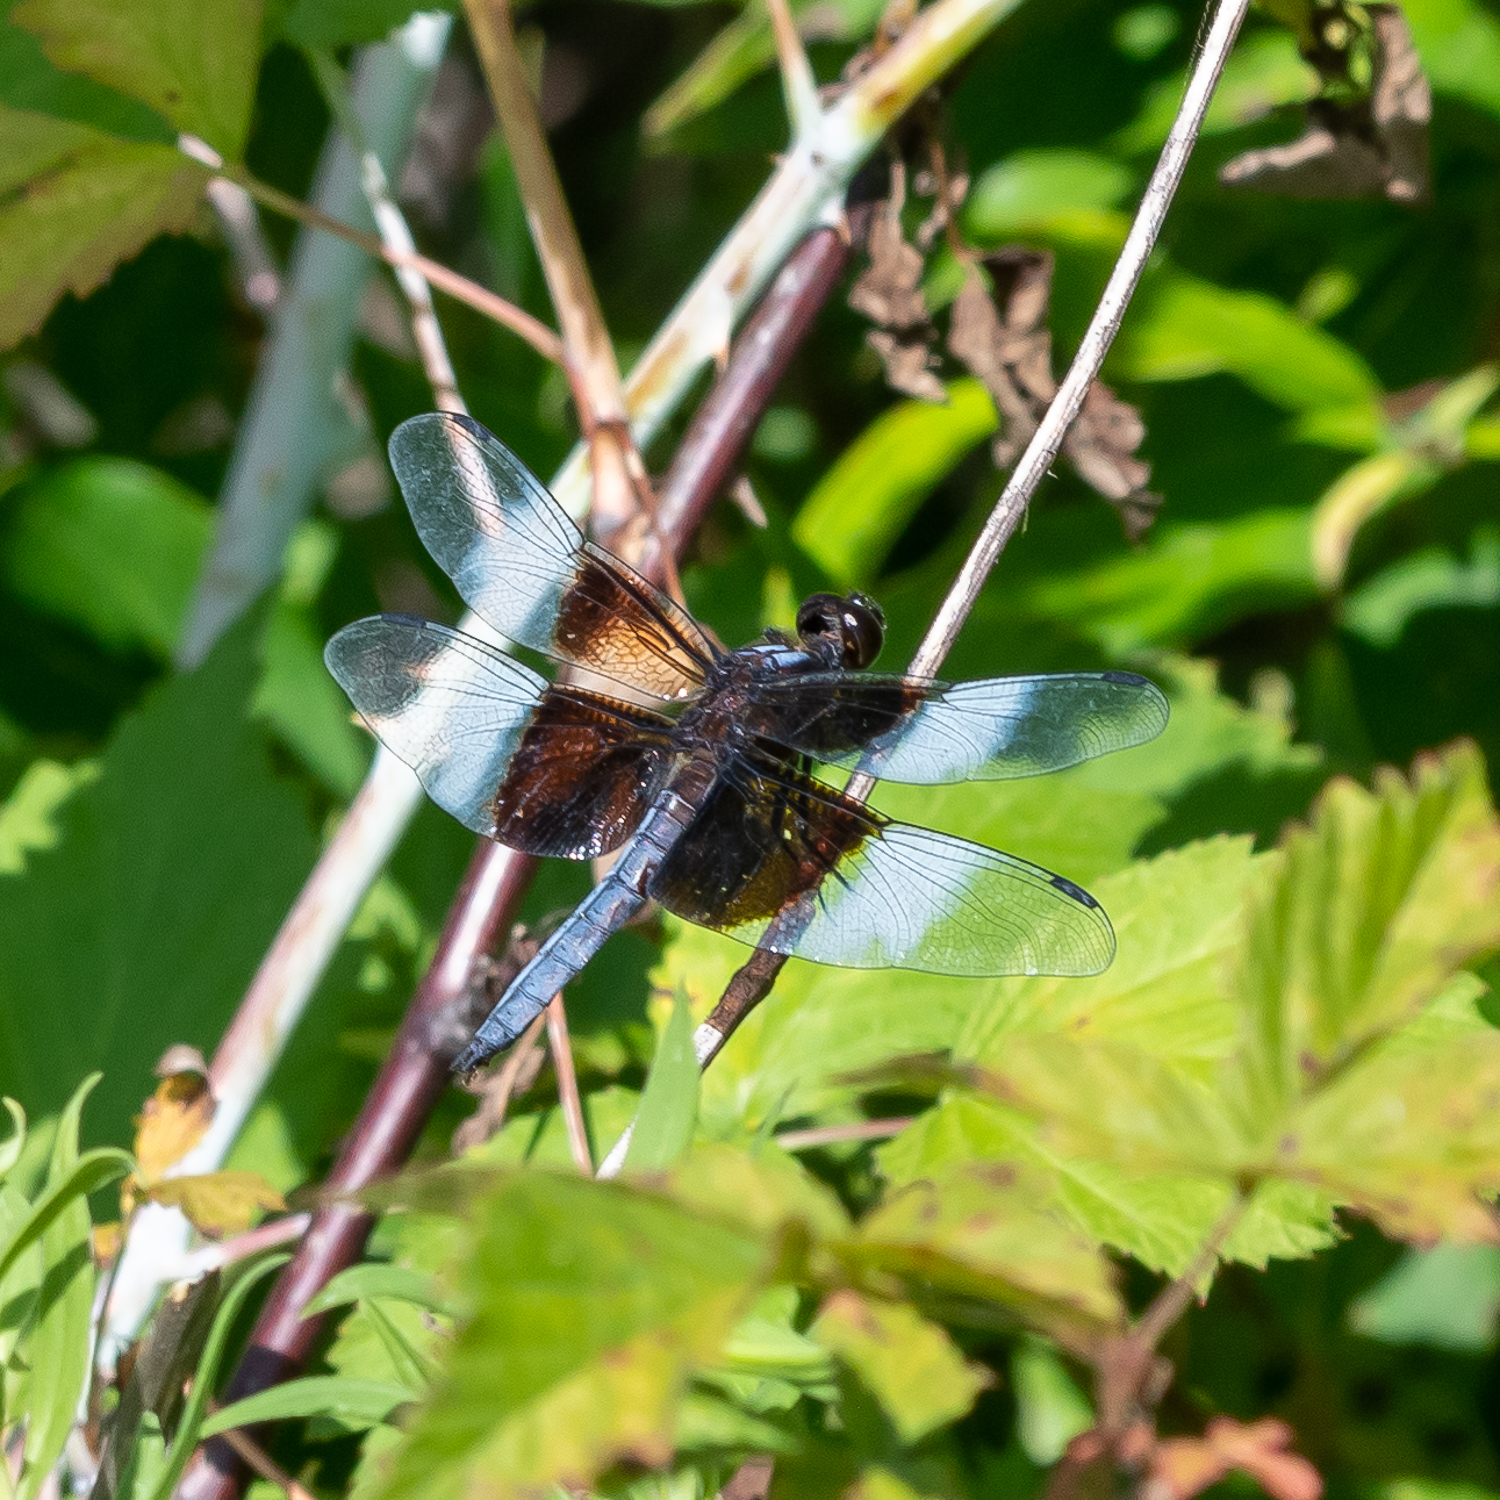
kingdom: Animalia
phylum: Arthropoda
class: Insecta
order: Odonata
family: Libellulidae
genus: Libellula
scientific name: Libellula luctuosa
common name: Widow skimmer
